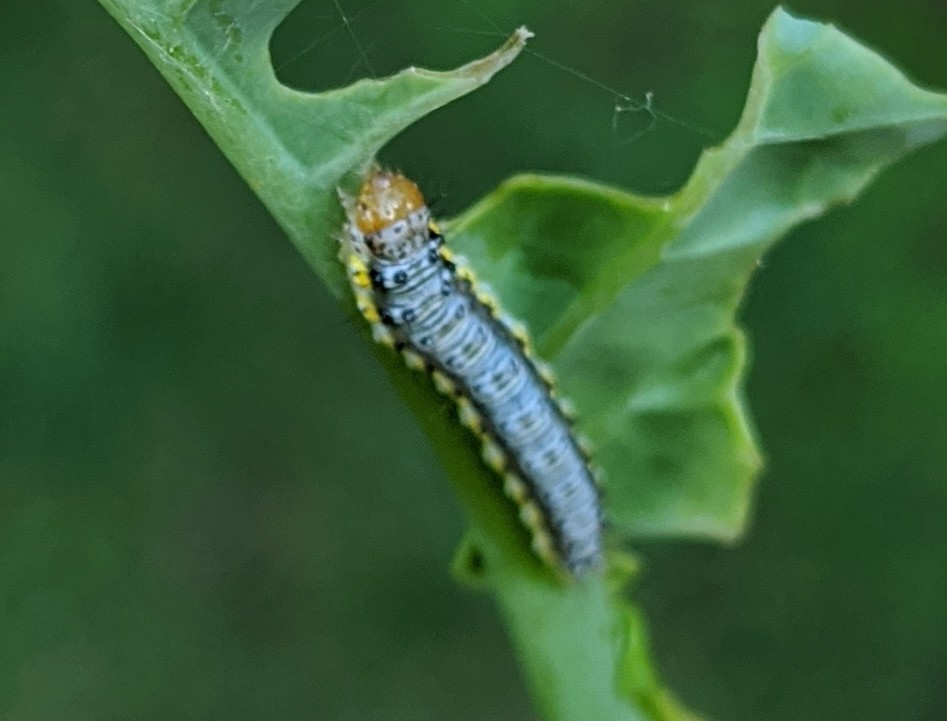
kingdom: Animalia
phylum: Arthropoda
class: Insecta
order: Lepidoptera
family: Crambidae
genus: Evergestis
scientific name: Evergestis rimosalis
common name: Cross-striped cabbageworm moth
